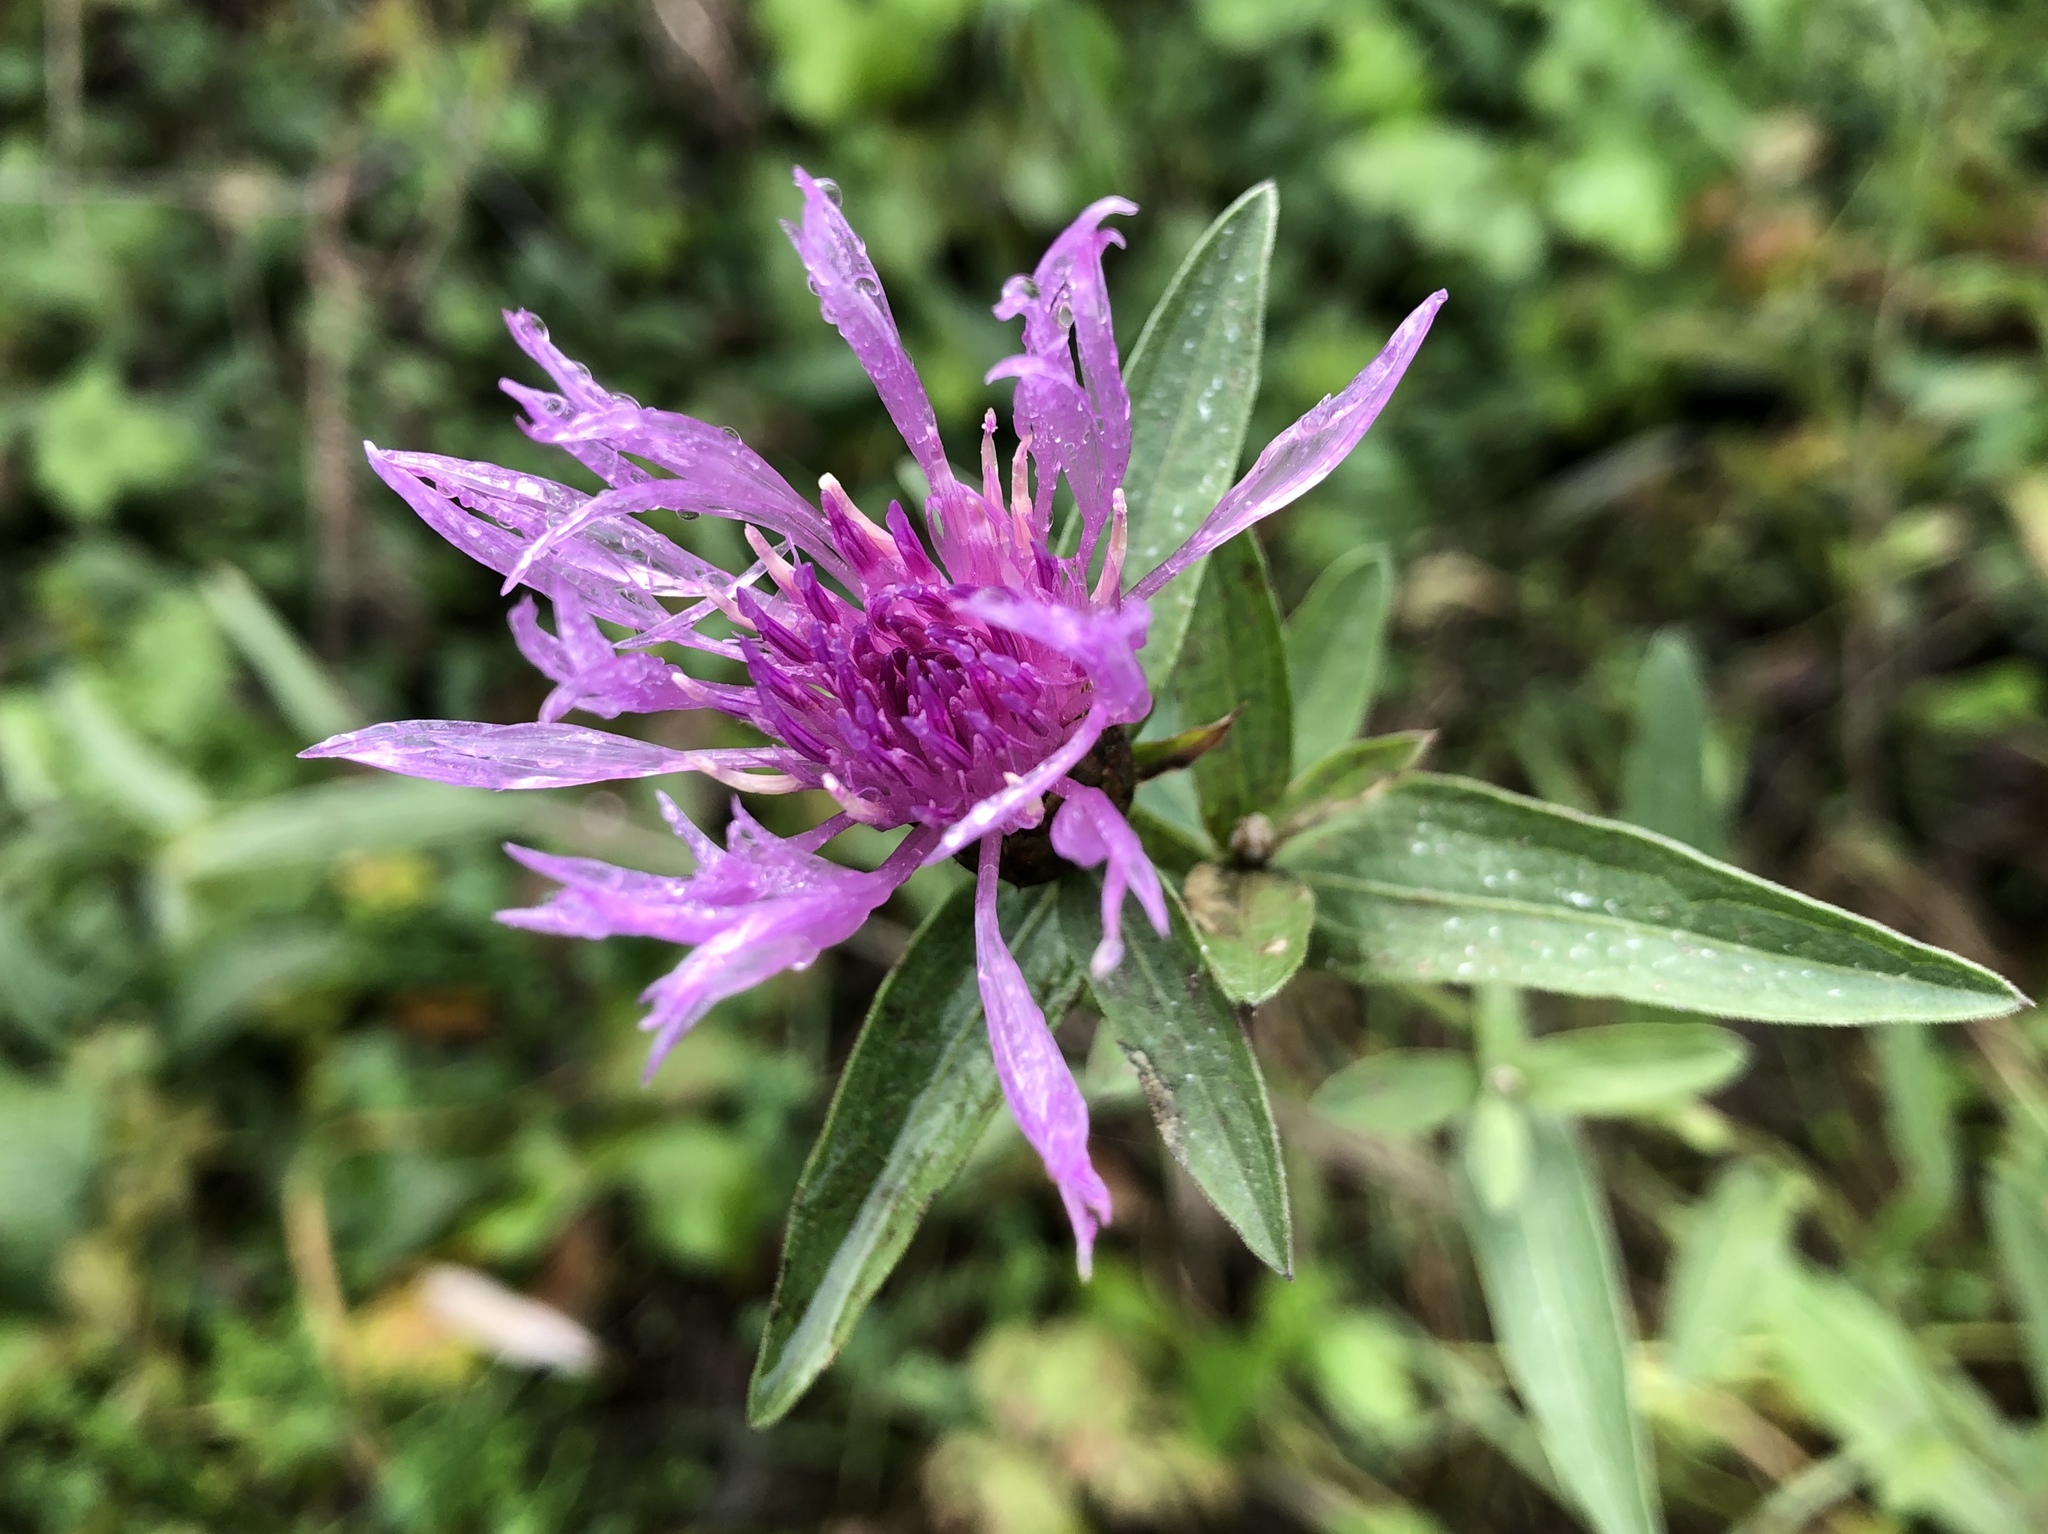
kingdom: Plantae
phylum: Tracheophyta
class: Magnoliopsida
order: Asterales
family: Asteraceae
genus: Centaurea
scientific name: Centaurea jacea
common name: Brown knapweed
